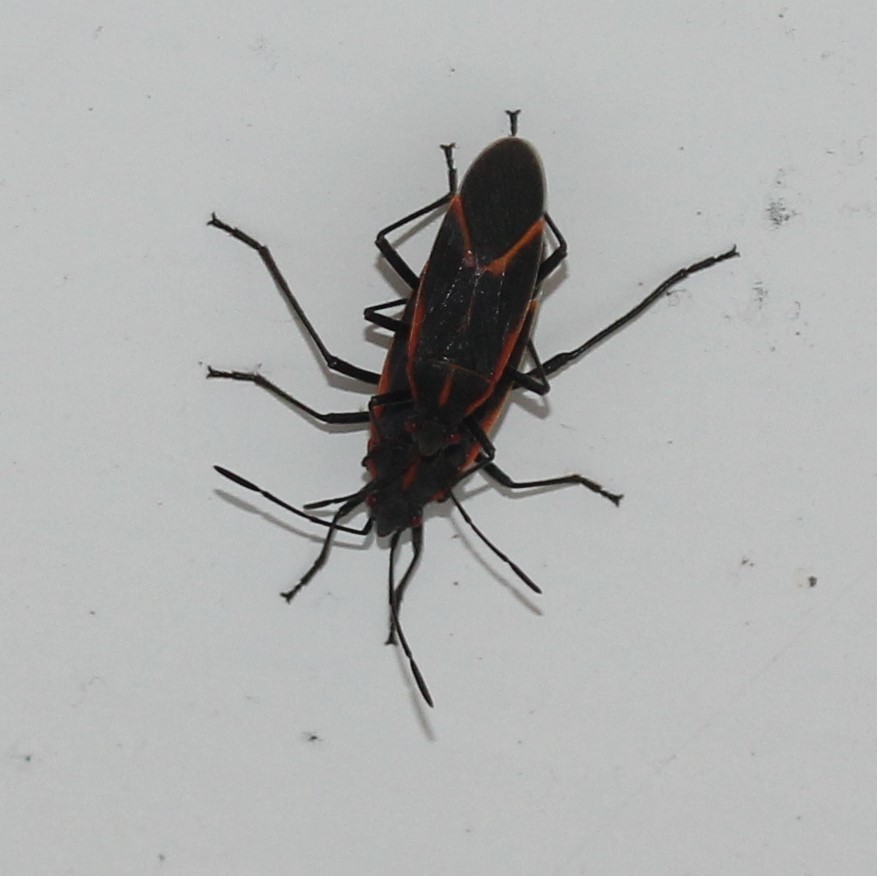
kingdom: Animalia
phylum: Arthropoda
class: Insecta
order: Hemiptera
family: Rhopalidae
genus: Boisea
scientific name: Boisea trivittata
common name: Boxelder bug
